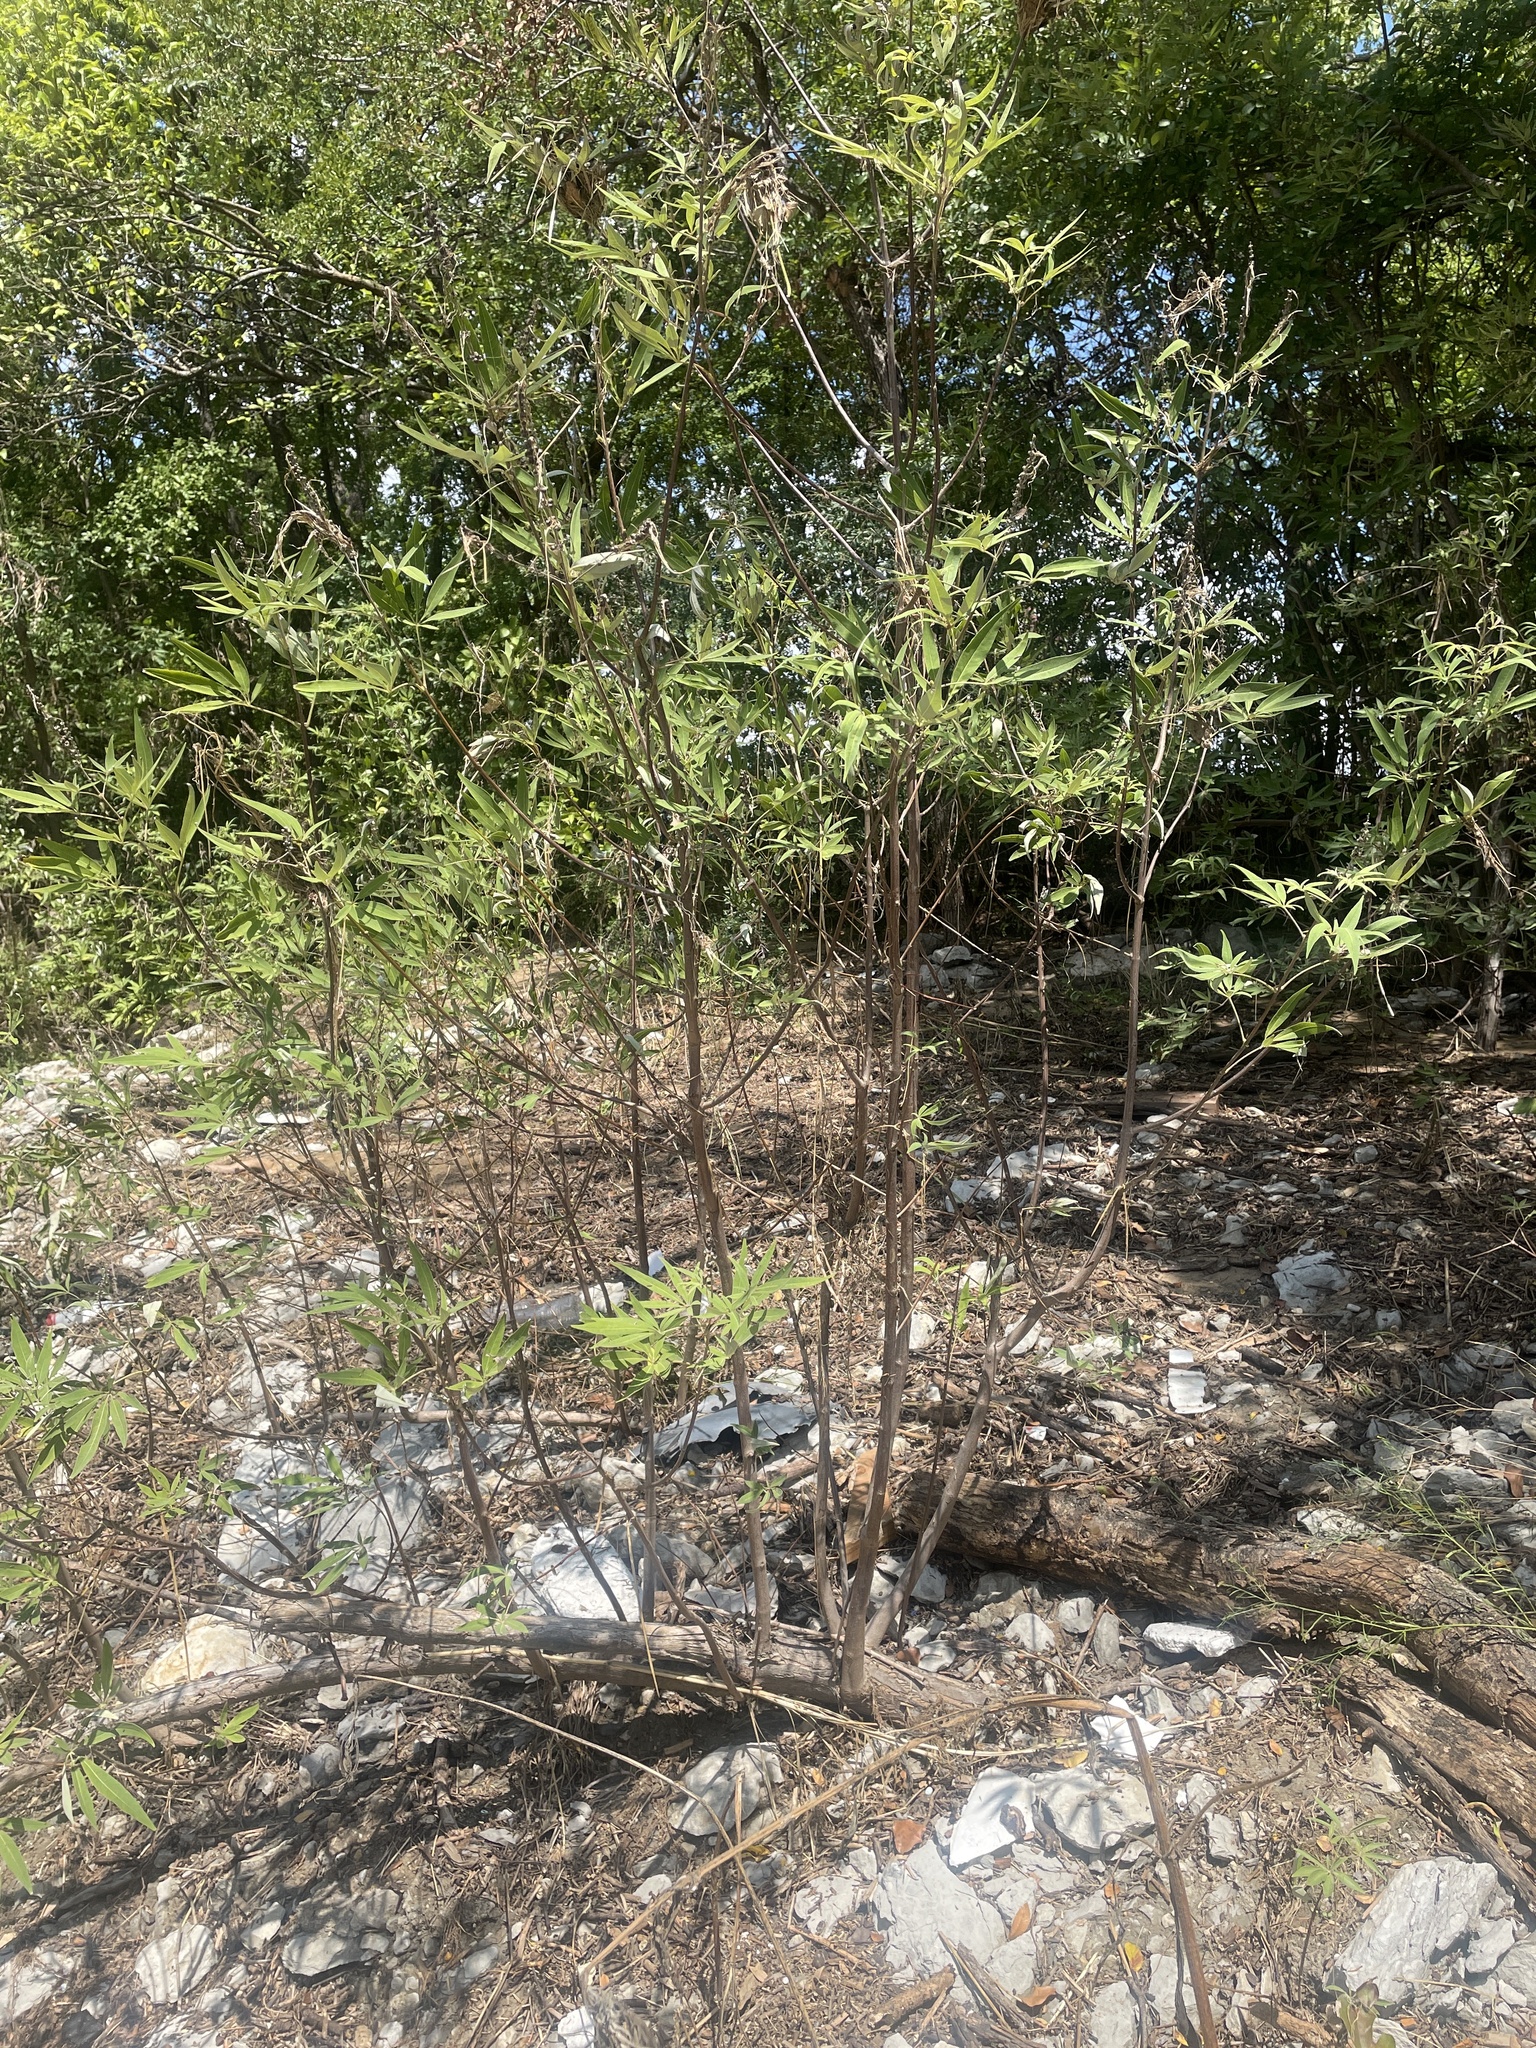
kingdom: Plantae
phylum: Tracheophyta
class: Magnoliopsida
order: Lamiales
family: Lamiaceae
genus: Vitex
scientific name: Vitex agnus-castus
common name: Chasteberry
